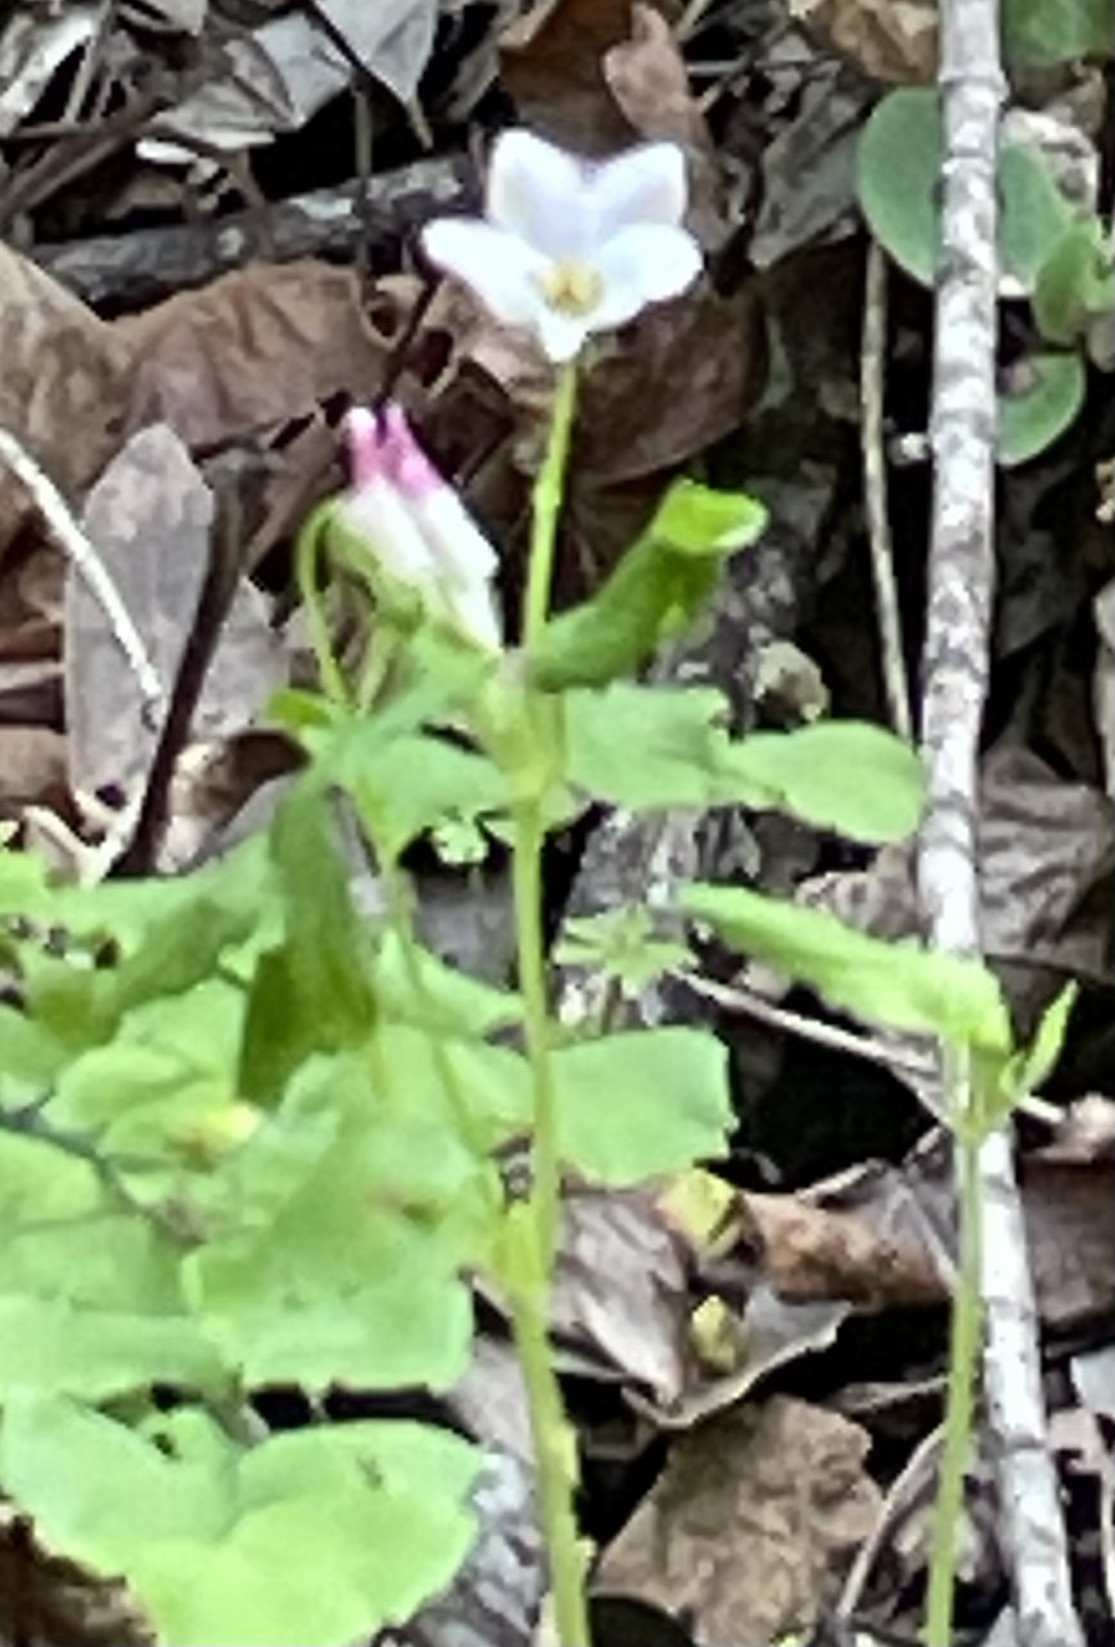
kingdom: Plantae
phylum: Tracheophyta
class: Magnoliopsida
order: Malpighiales
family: Violaceae
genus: Viola
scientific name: Viola ocellata
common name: Western heart's ease
